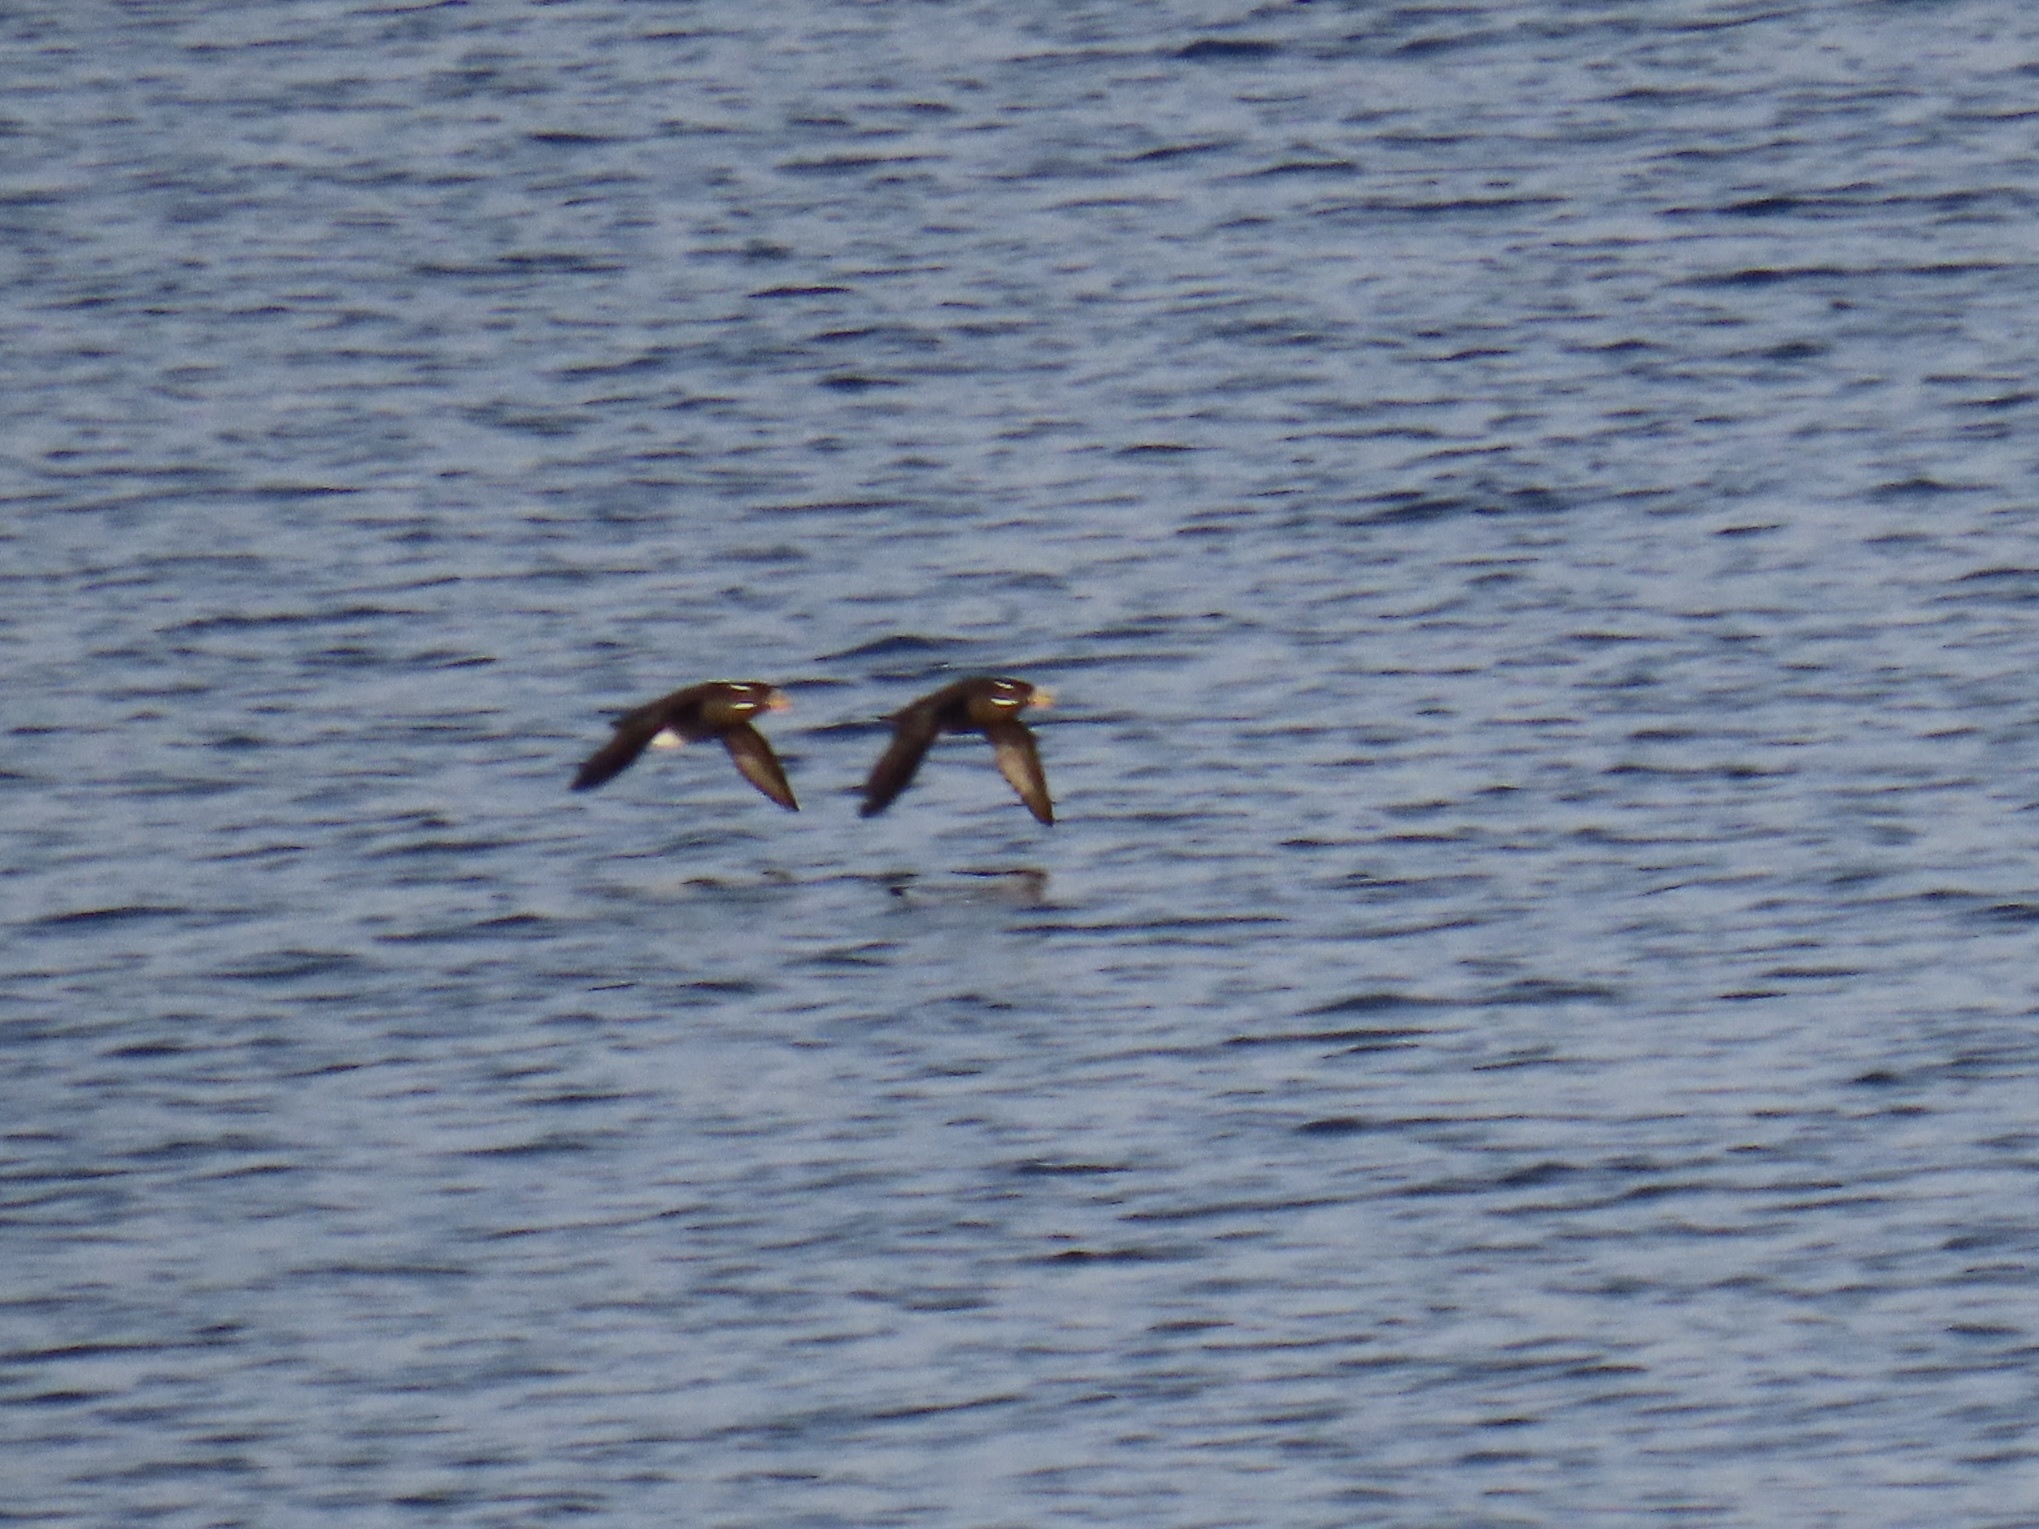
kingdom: Animalia
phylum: Chordata
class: Aves
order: Charadriiformes
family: Alcidae
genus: Cerorhinca
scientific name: Cerorhinca monocerata
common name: Rhinoceros auklet
